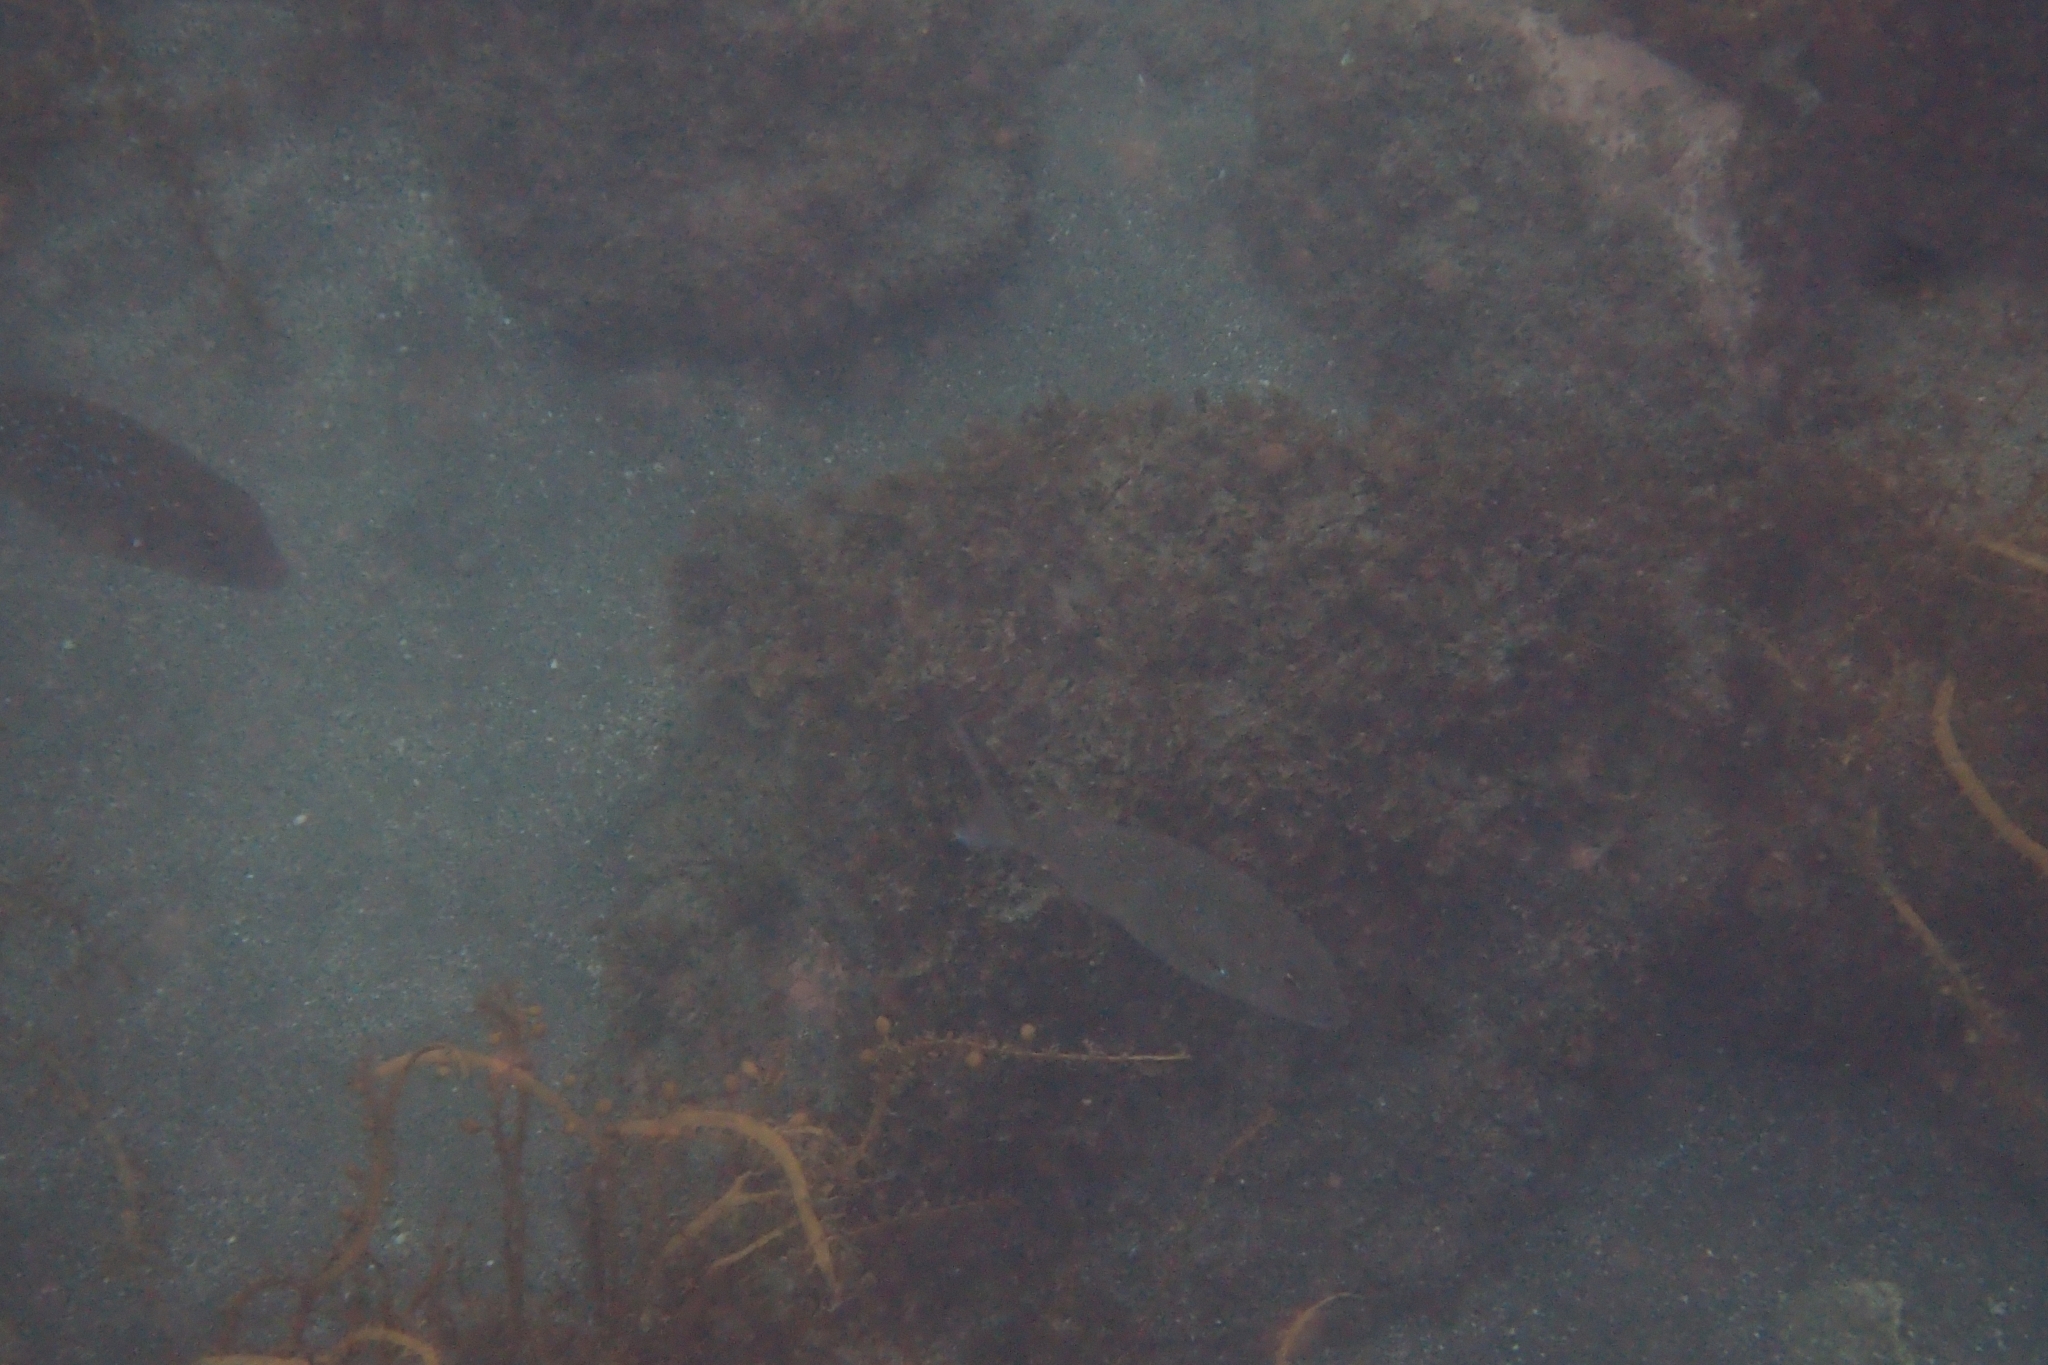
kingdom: Animalia
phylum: Chordata
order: Perciformes
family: Sparidae
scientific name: Sparidae
